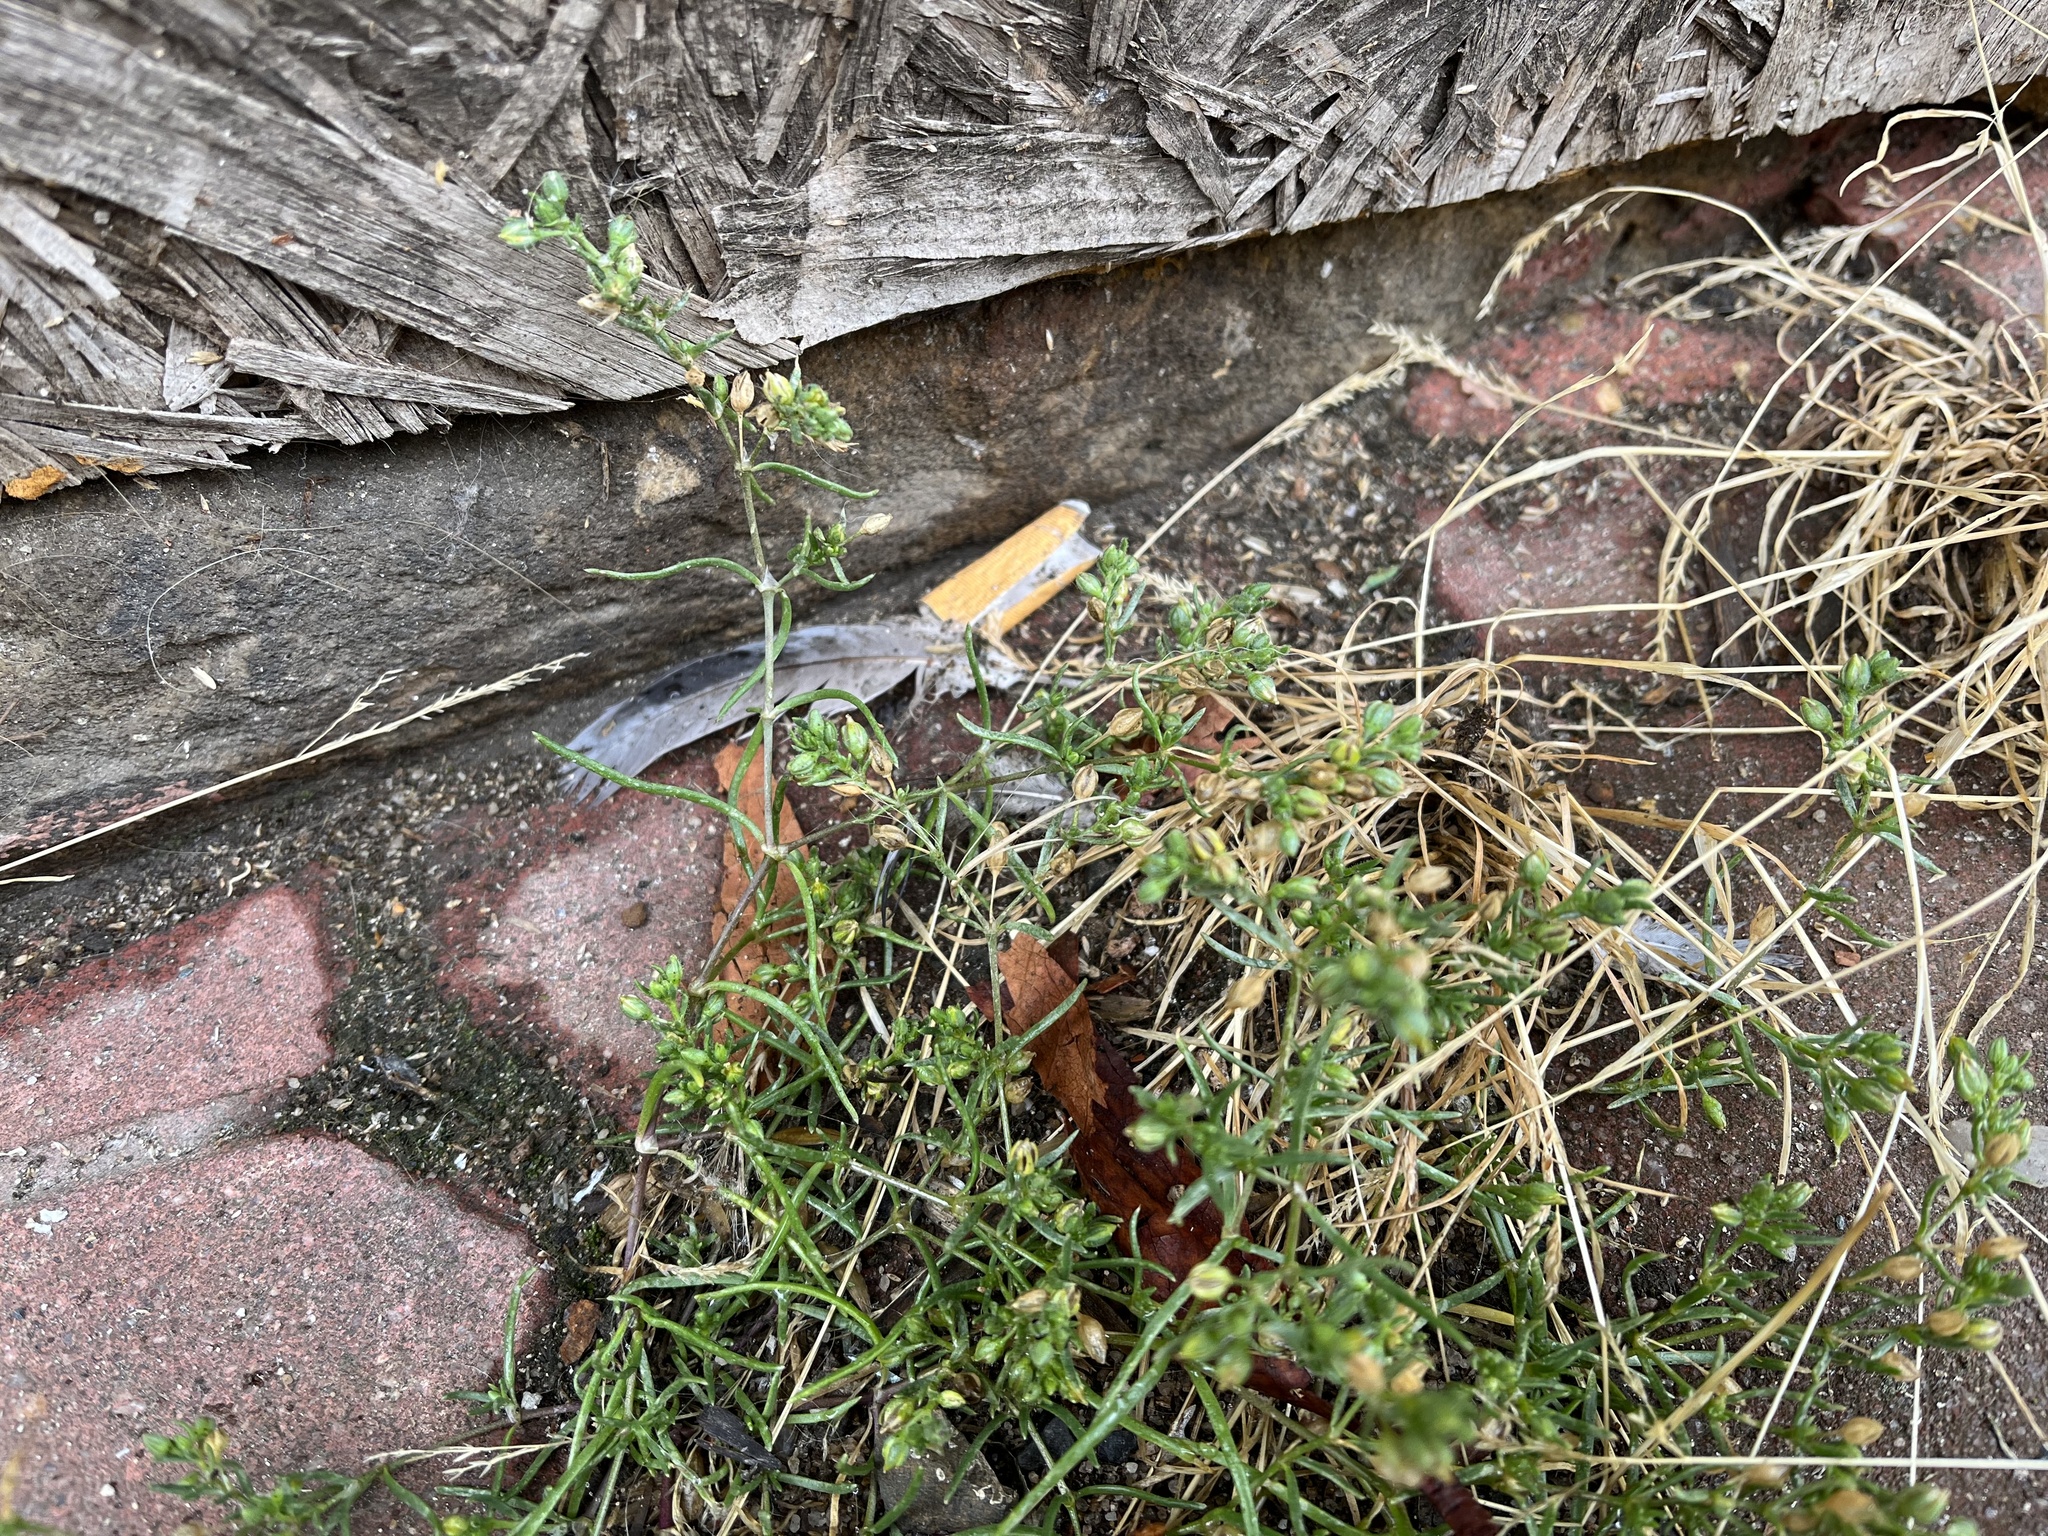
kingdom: Plantae
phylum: Tracheophyta
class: Magnoliopsida
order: Caryophyllales
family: Caryophyllaceae
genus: Spergularia
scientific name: Spergularia marina
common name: Lesser sea-spurrey
